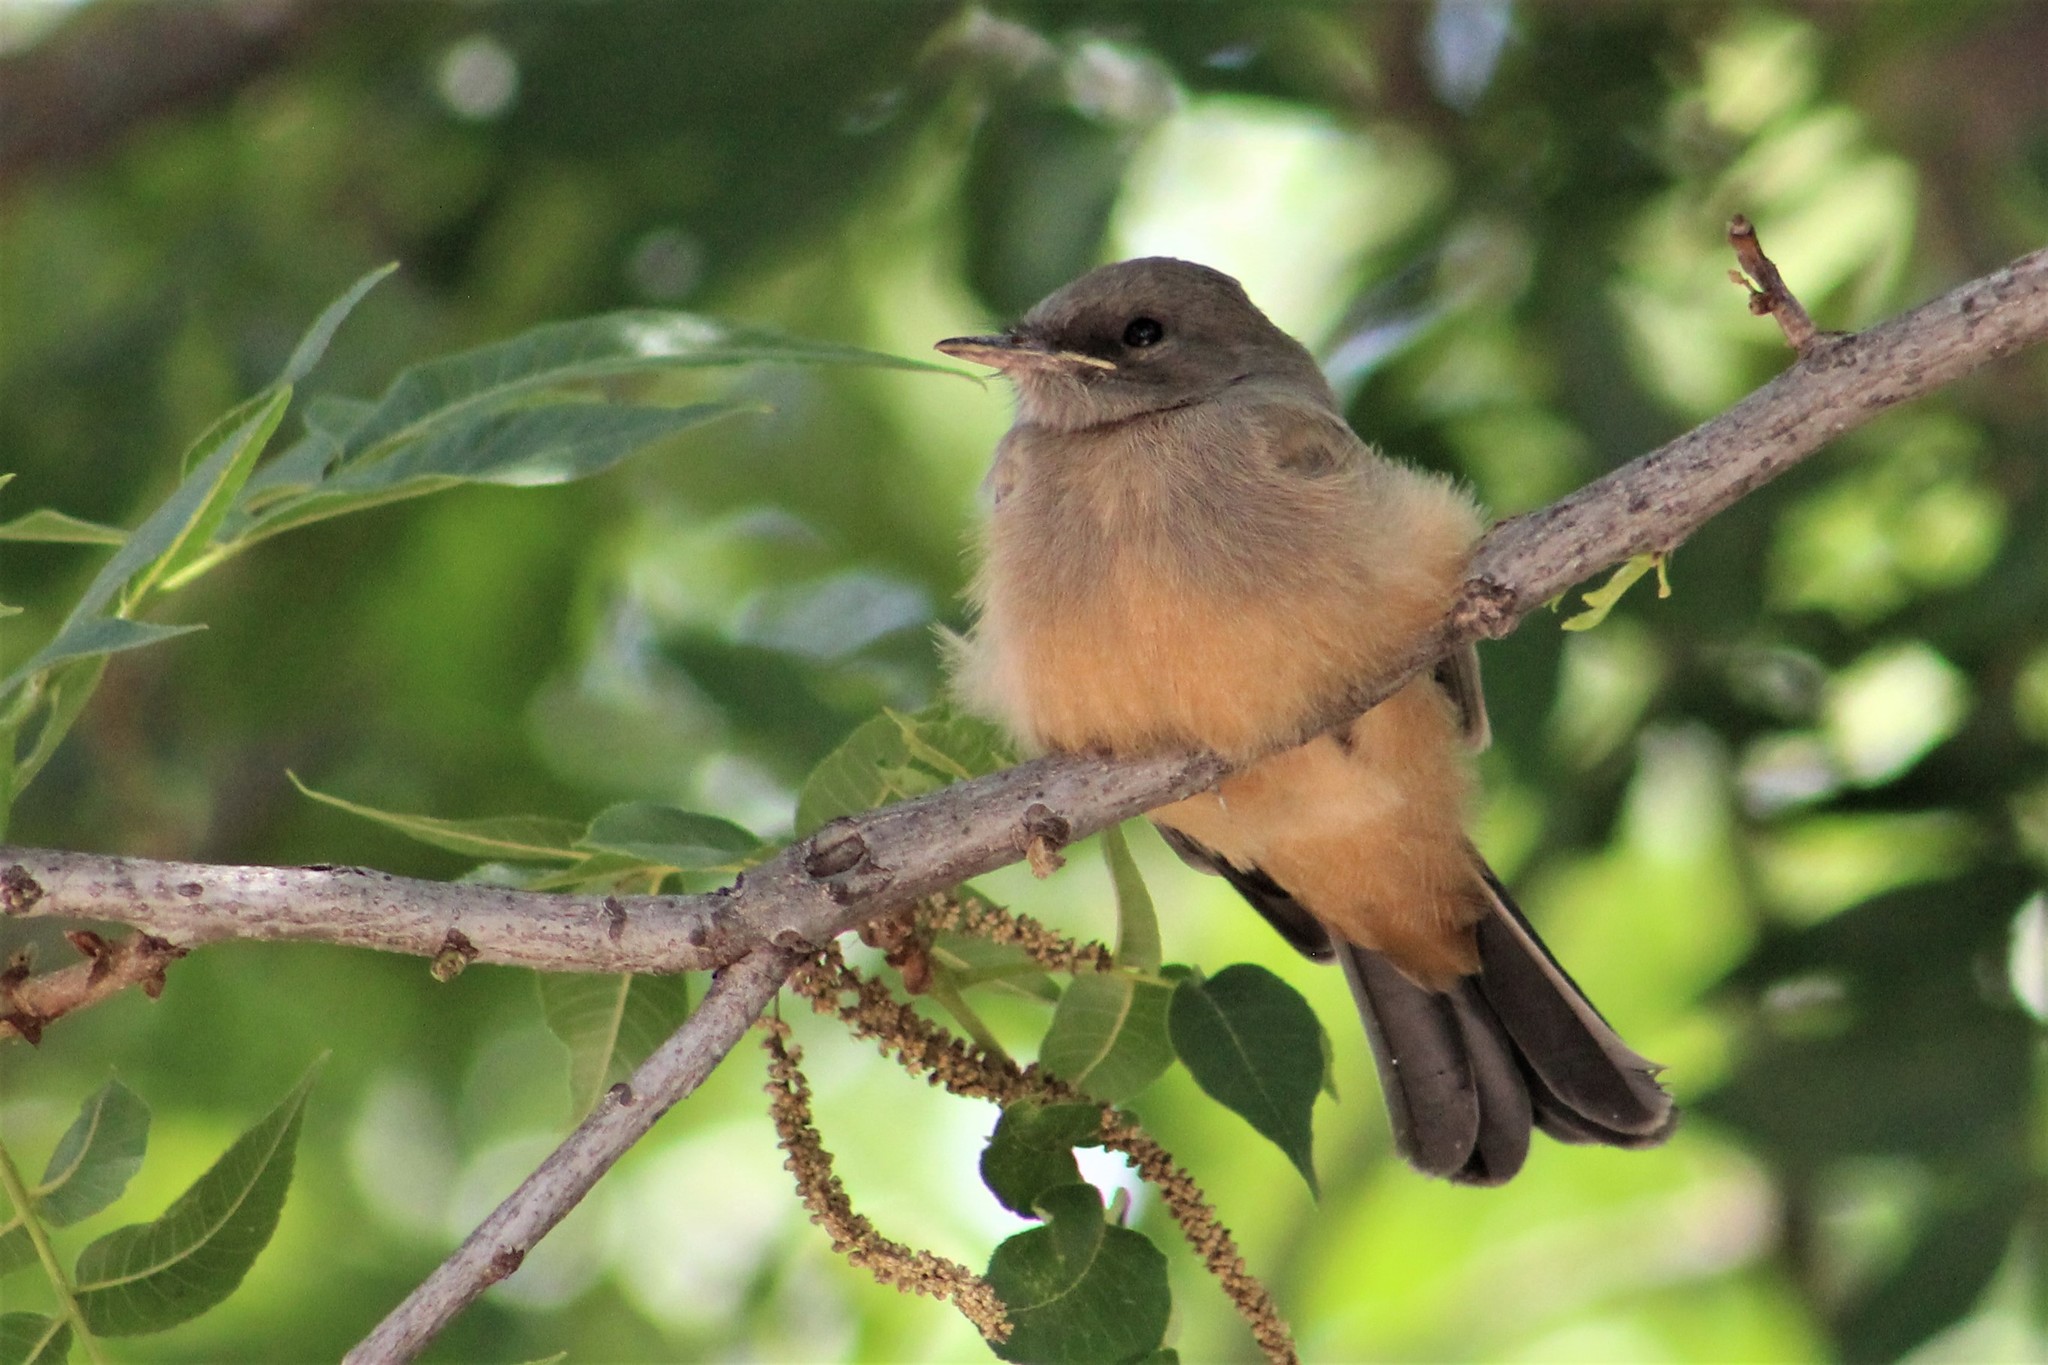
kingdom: Animalia
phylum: Chordata
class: Aves
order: Passeriformes
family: Tyrannidae
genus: Sayornis
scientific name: Sayornis saya
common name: Say's phoebe
